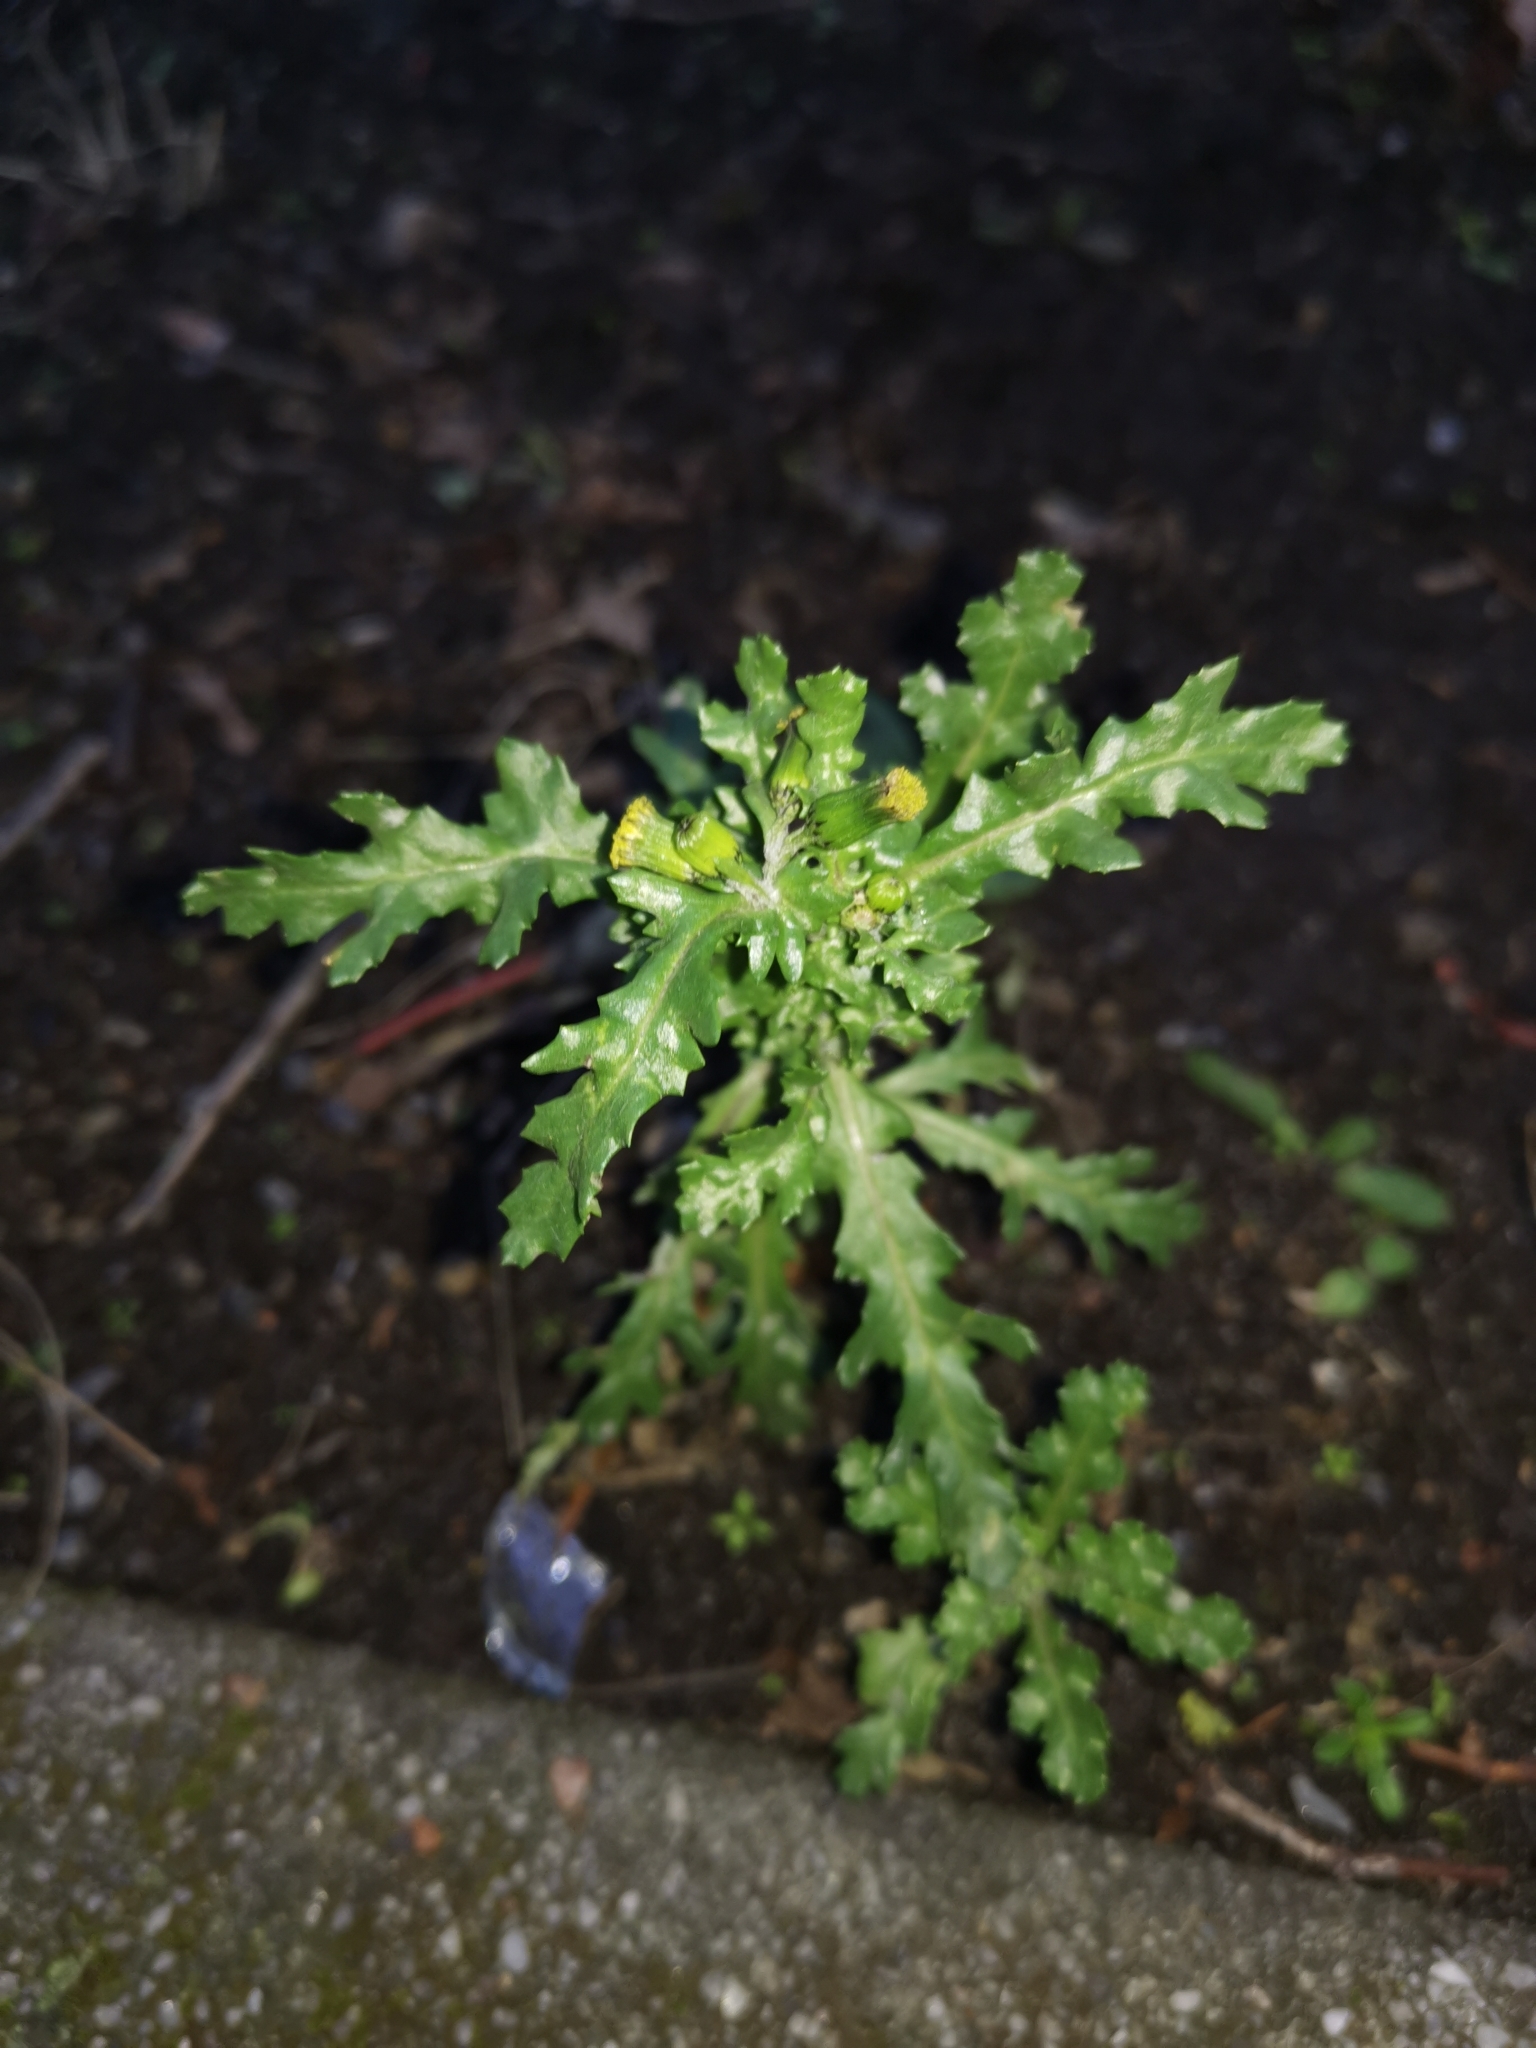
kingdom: Plantae
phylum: Tracheophyta
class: Magnoliopsida
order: Asterales
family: Asteraceae
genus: Senecio
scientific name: Senecio vulgaris
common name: Old-man-in-the-spring
